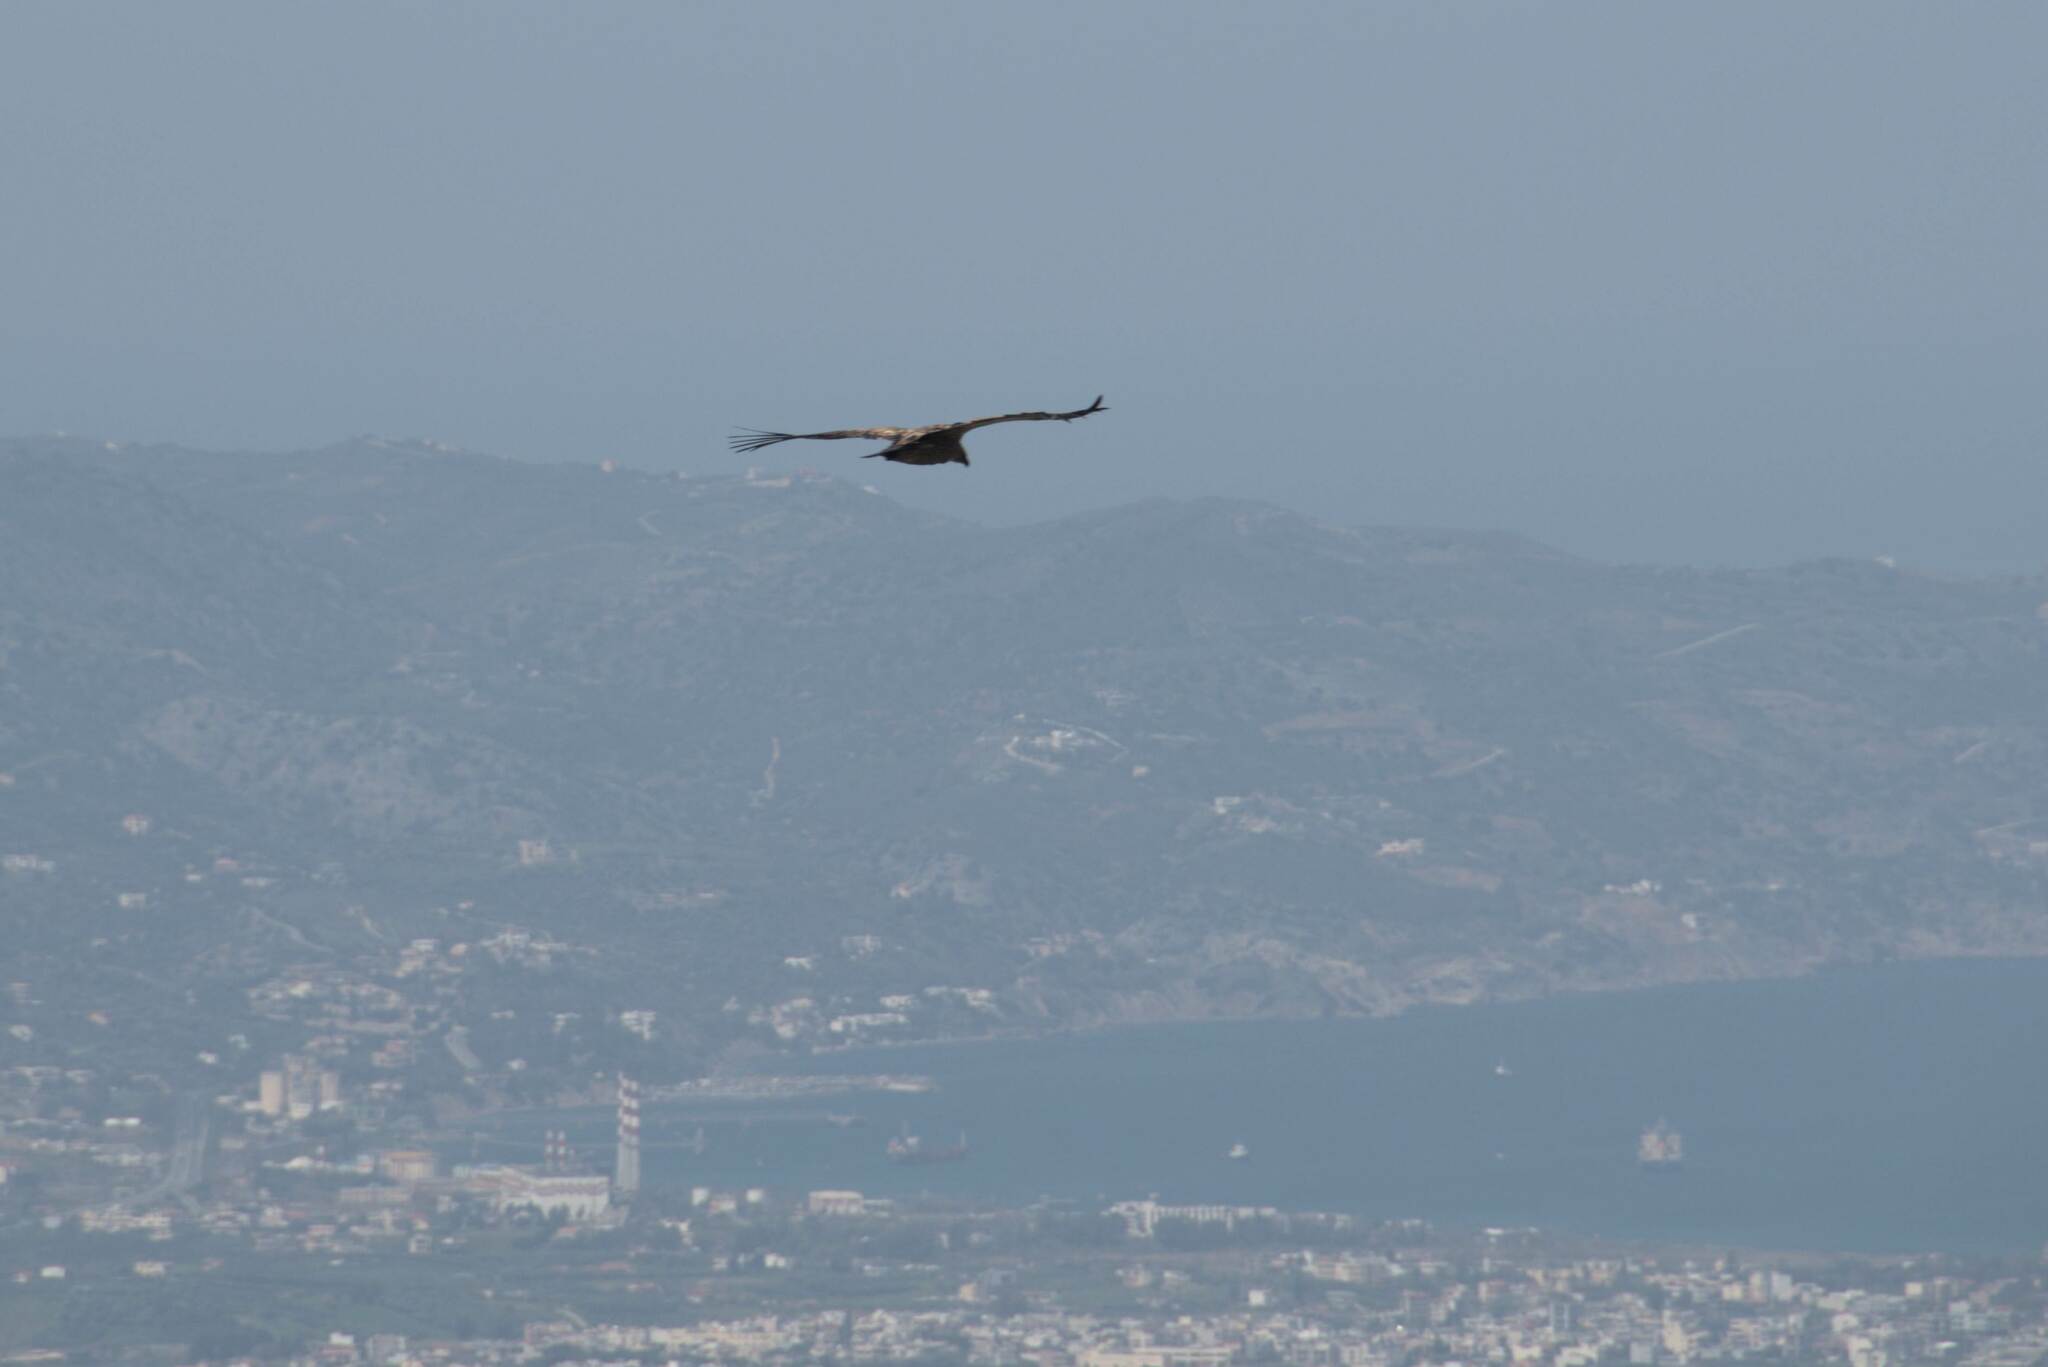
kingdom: Animalia
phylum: Chordata
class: Aves
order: Accipitriformes
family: Accipitridae
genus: Gyps
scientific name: Gyps fulvus
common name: Griffon vulture
